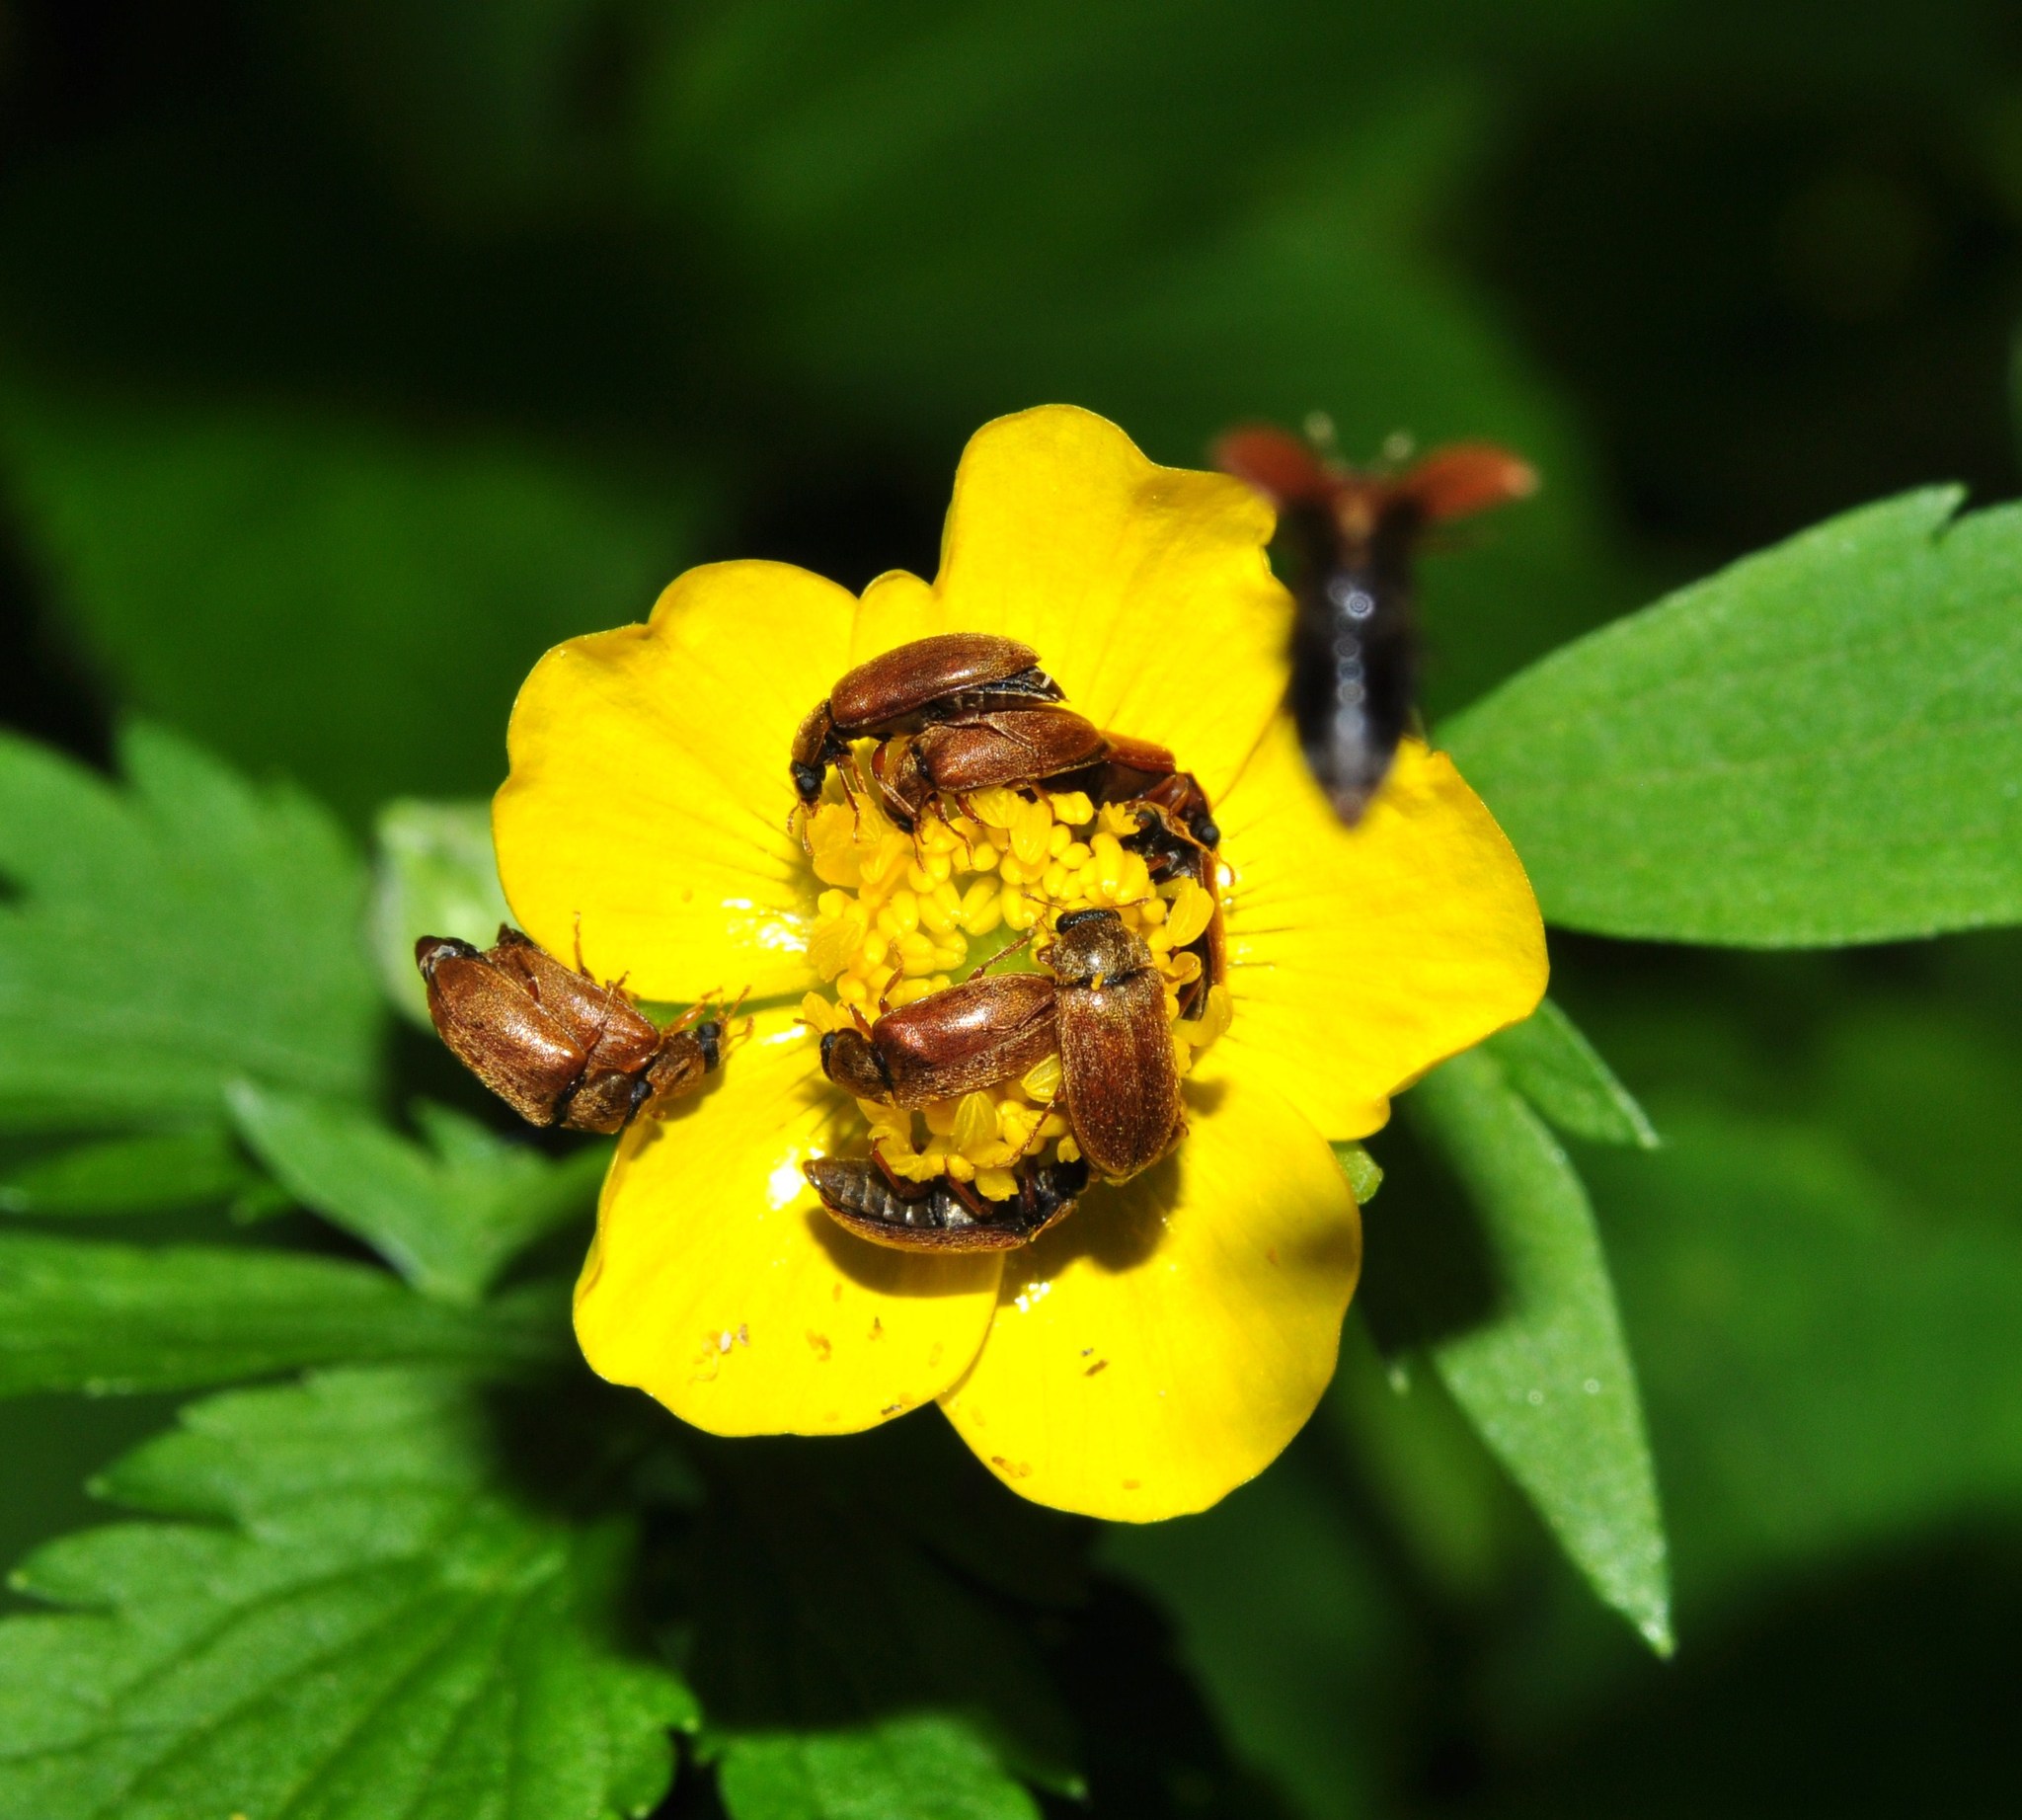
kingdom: Animalia
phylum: Arthropoda
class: Insecta
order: Coleoptera
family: Byturidae
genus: Byturus
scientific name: Byturus ochraceus
